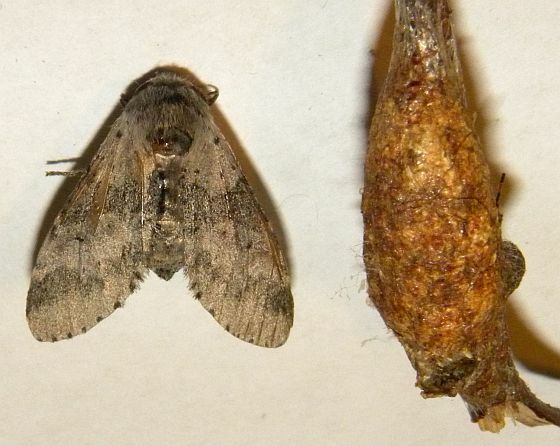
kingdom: Animalia
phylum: Arthropoda
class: Insecta
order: Lepidoptera
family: Notodontidae
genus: Furcula
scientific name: Furcula cinerea
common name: Gray furcula
